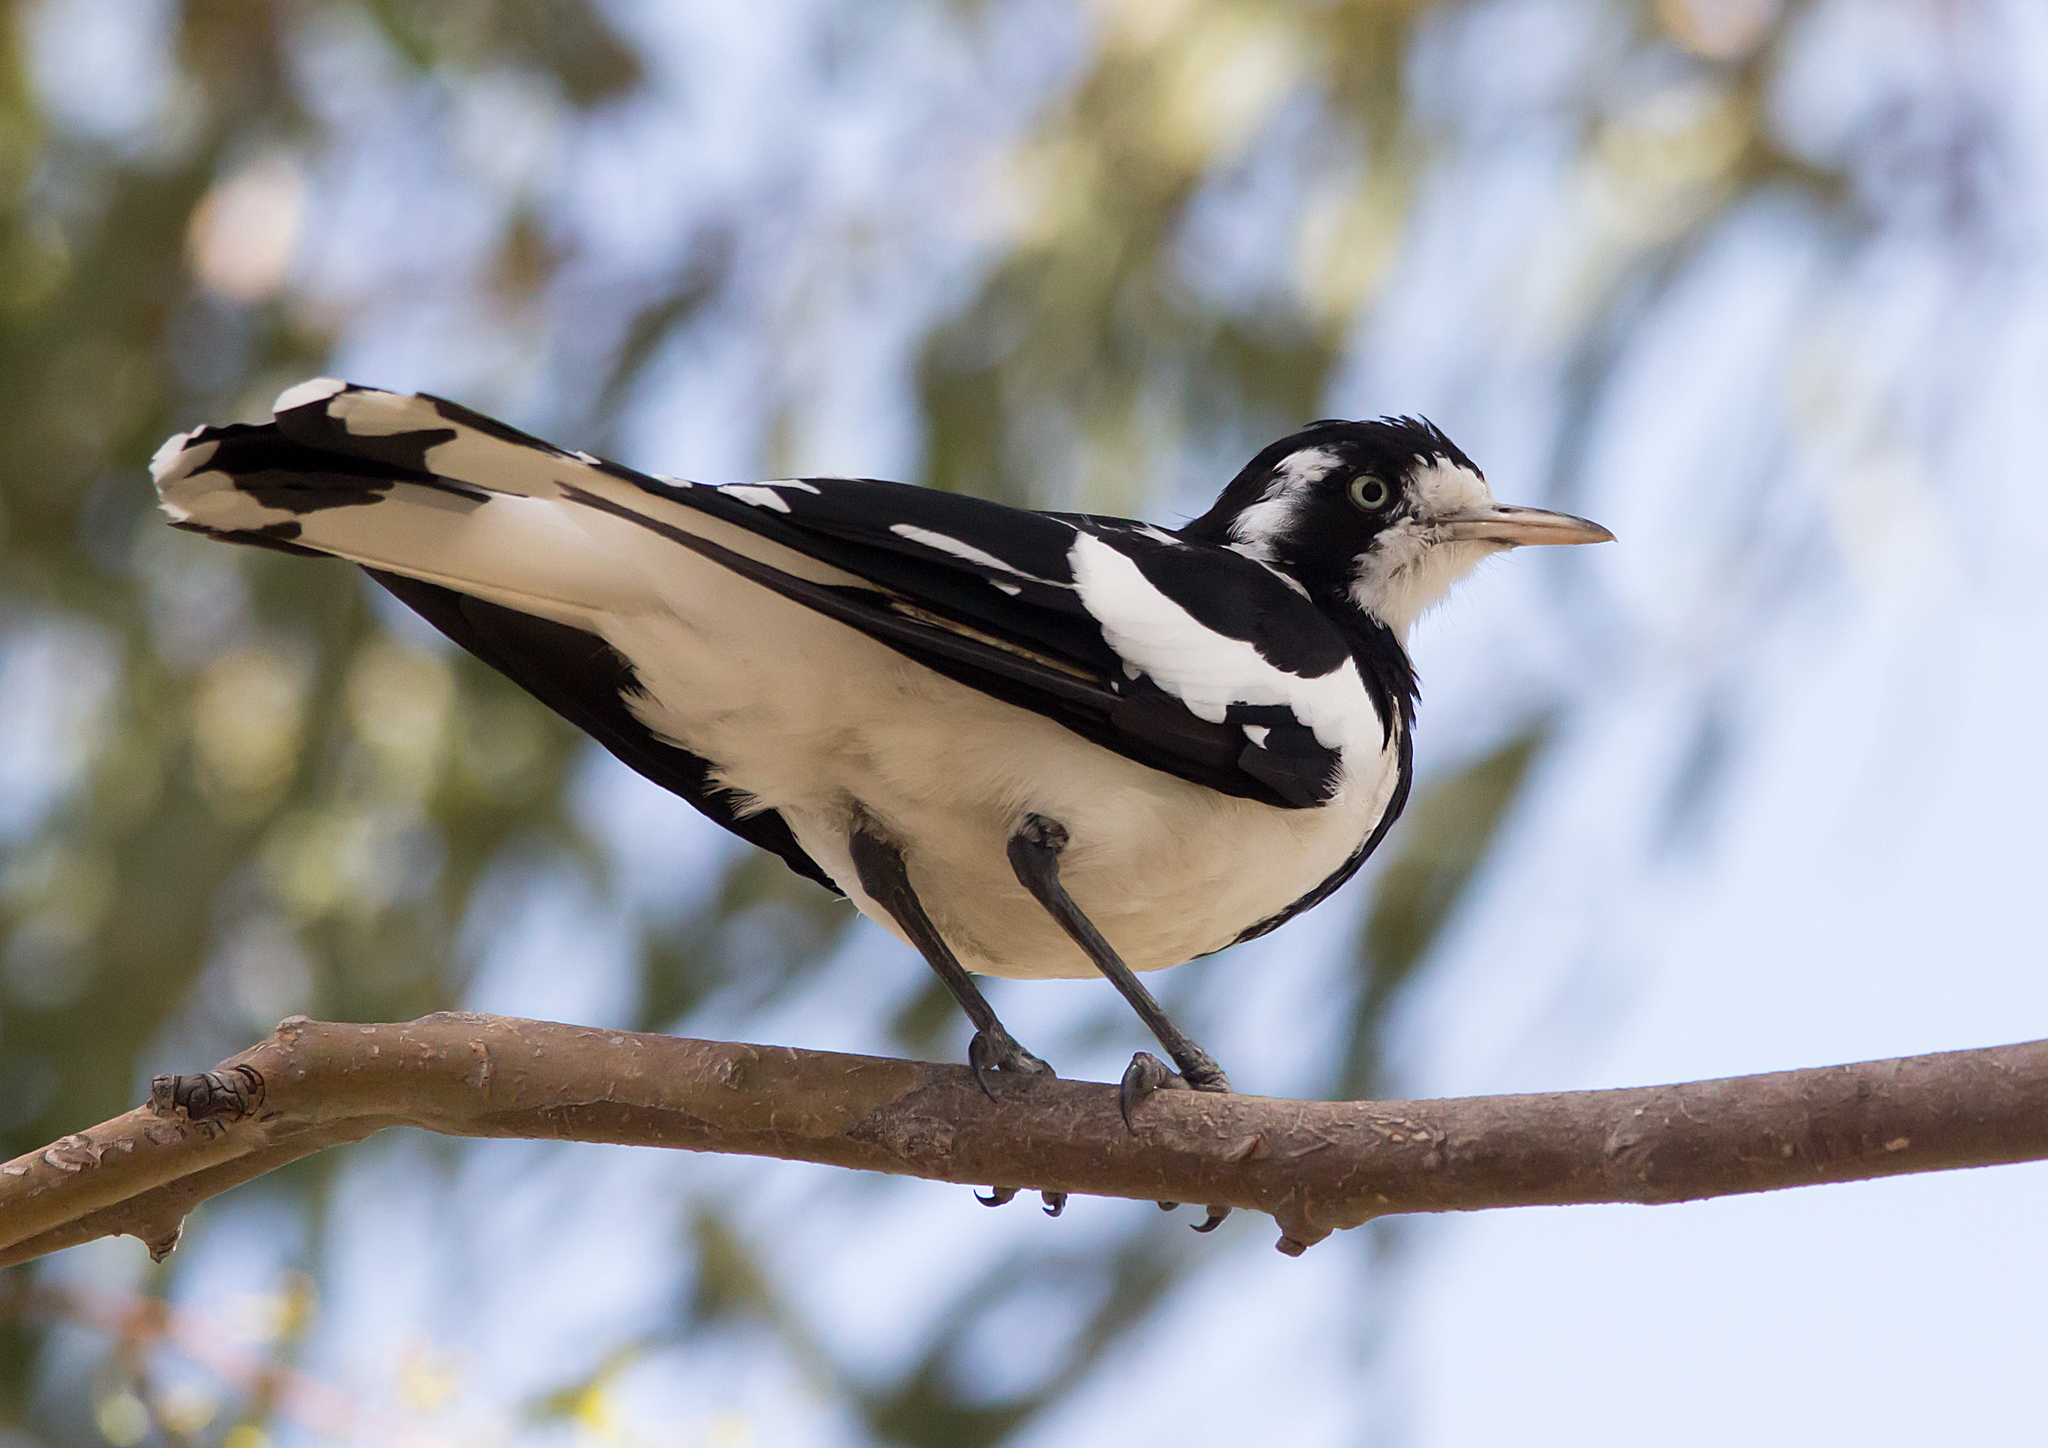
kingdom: Animalia
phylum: Chordata
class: Aves
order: Passeriformes
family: Monarchidae
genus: Grallina
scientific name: Grallina cyanoleuca
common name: Magpie-lark
